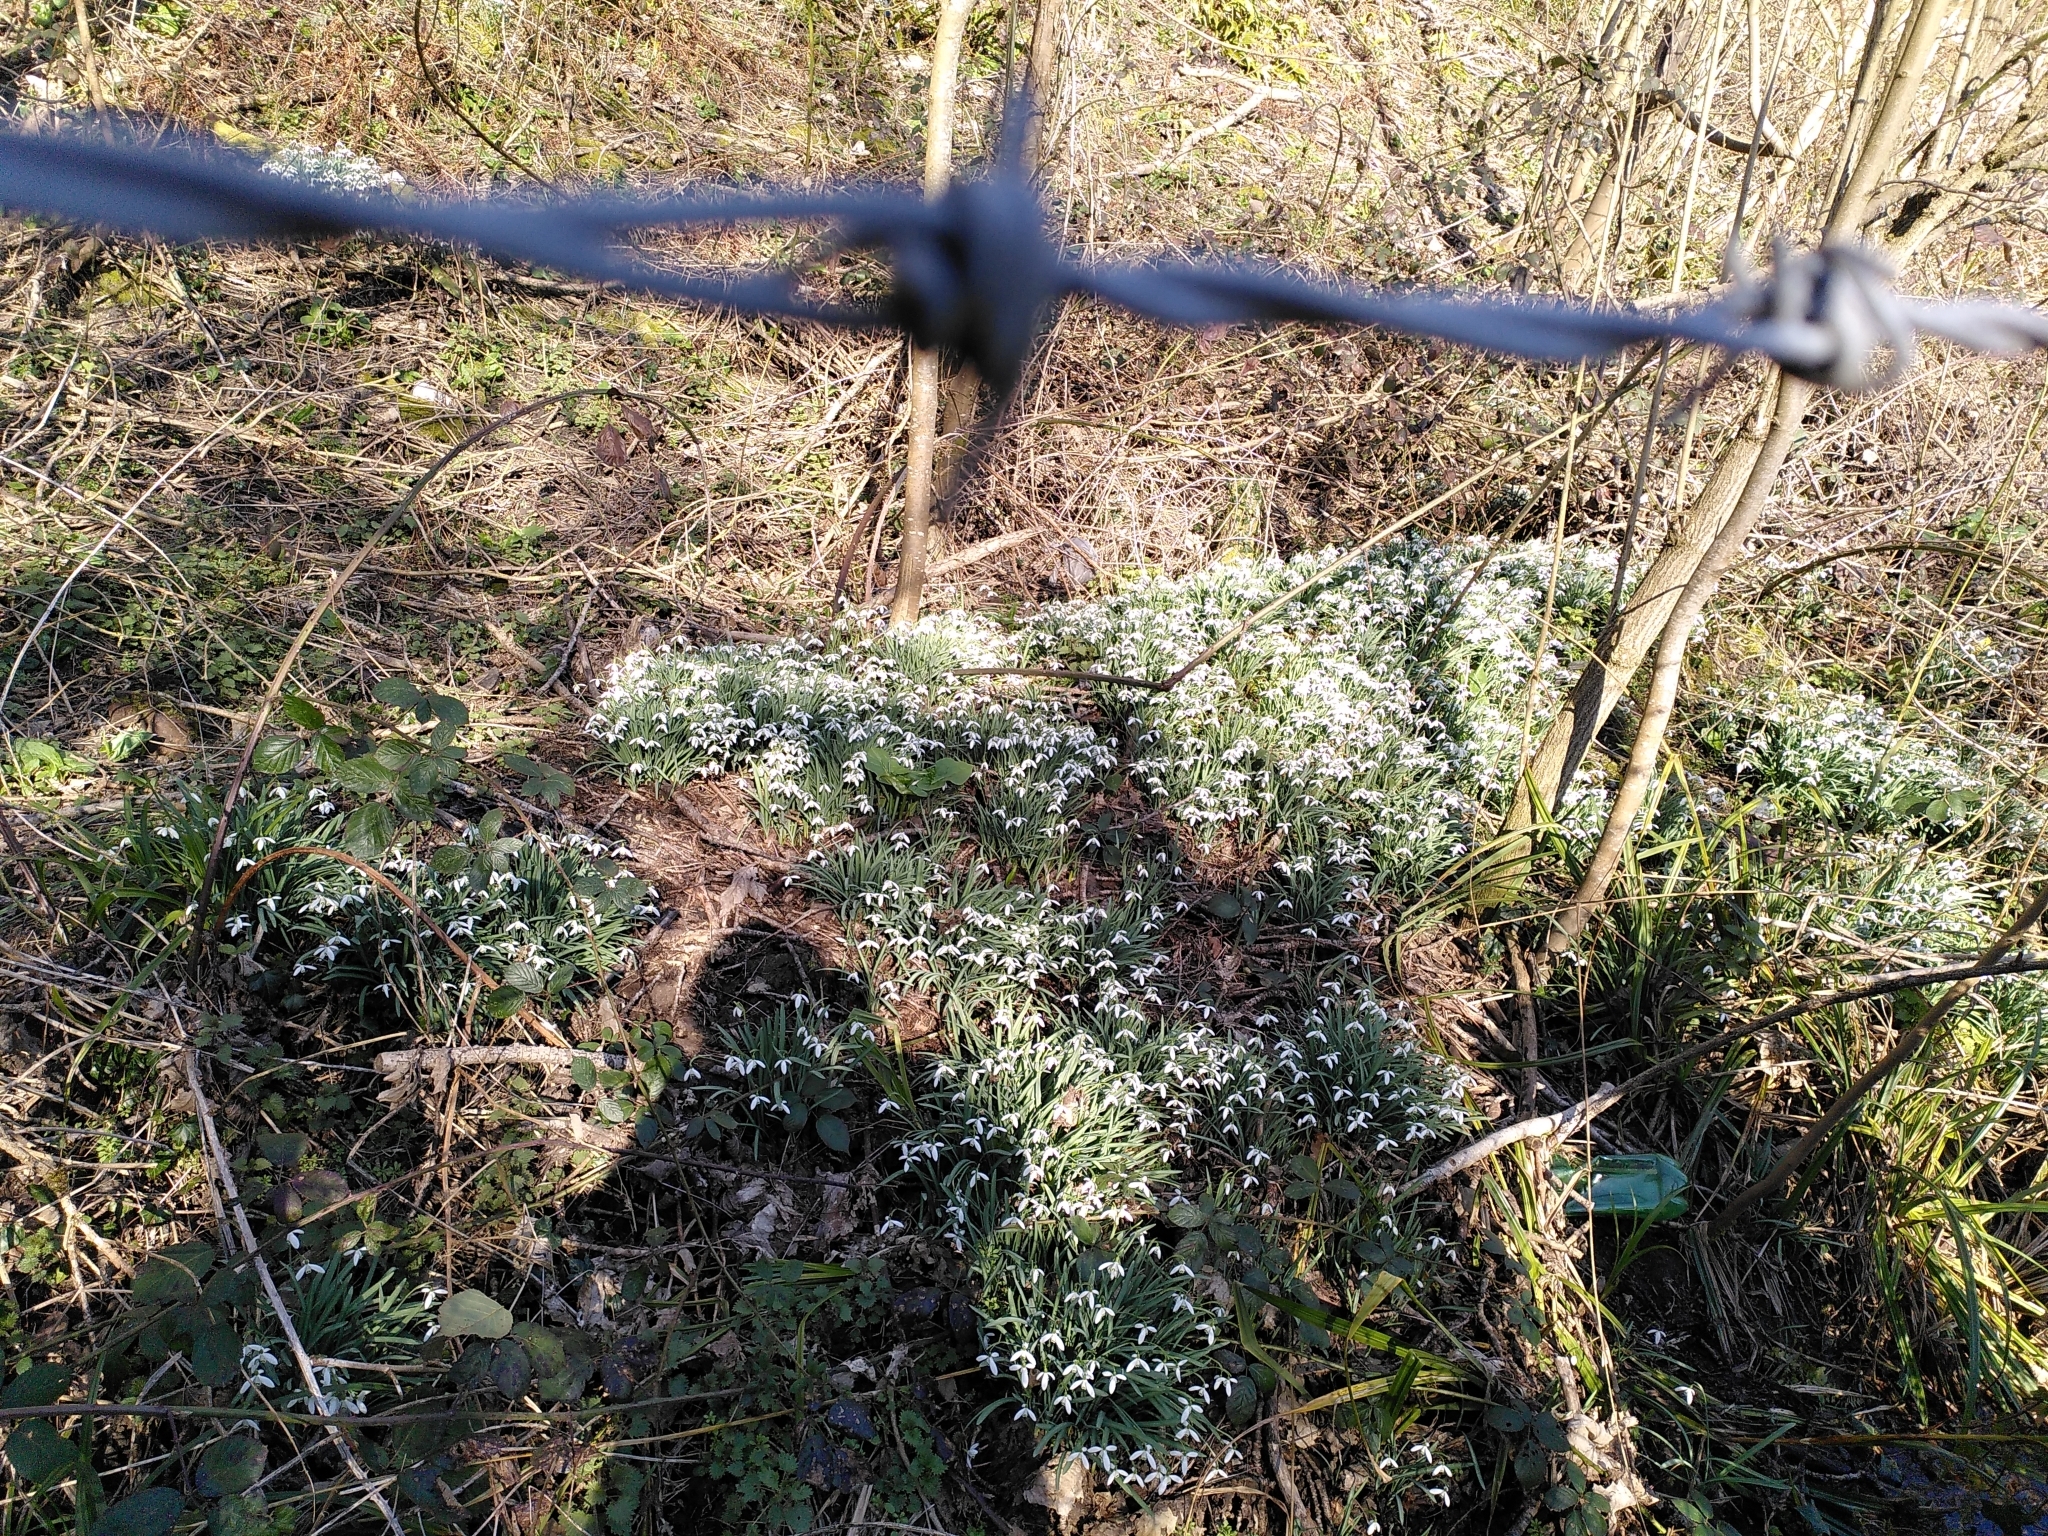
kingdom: Plantae
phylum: Tracheophyta
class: Liliopsida
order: Asparagales
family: Amaryllidaceae
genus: Galanthus
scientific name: Galanthus nivalis
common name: Snowdrop
